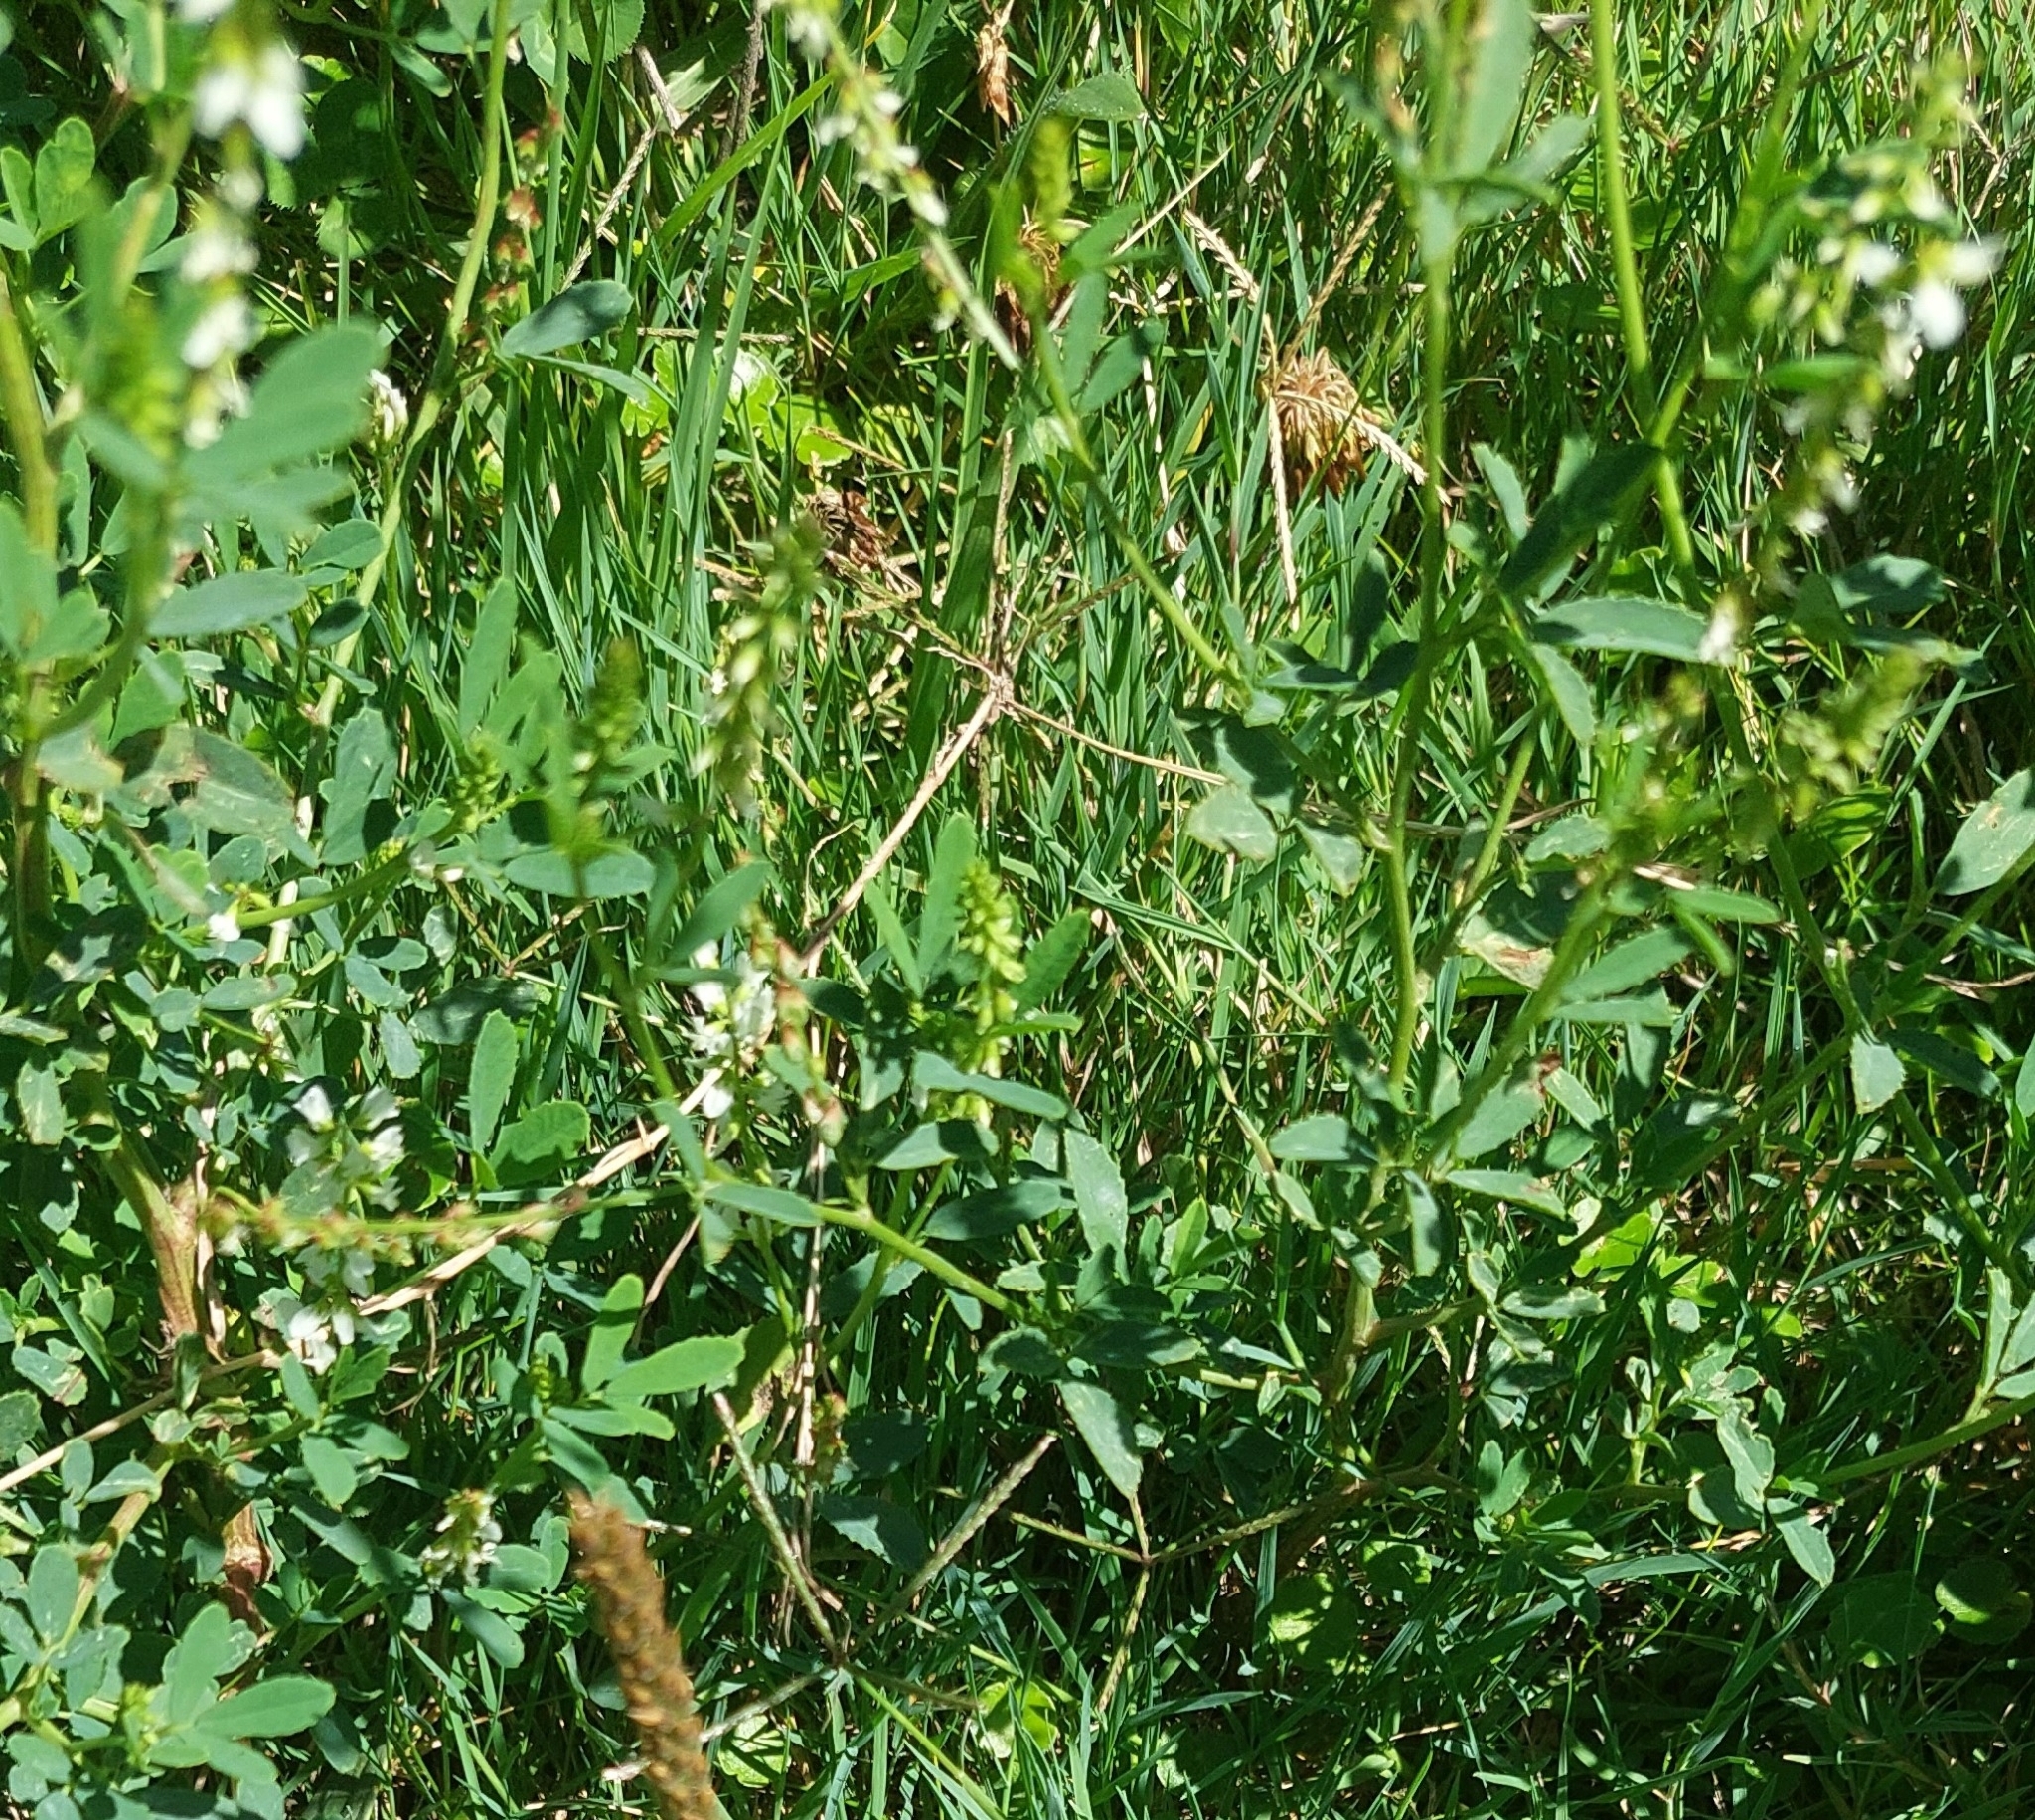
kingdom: Plantae
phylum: Tracheophyta
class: Magnoliopsida
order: Fabales
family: Fabaceae
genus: Melilotus
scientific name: Melilotus albus
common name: White melilot
